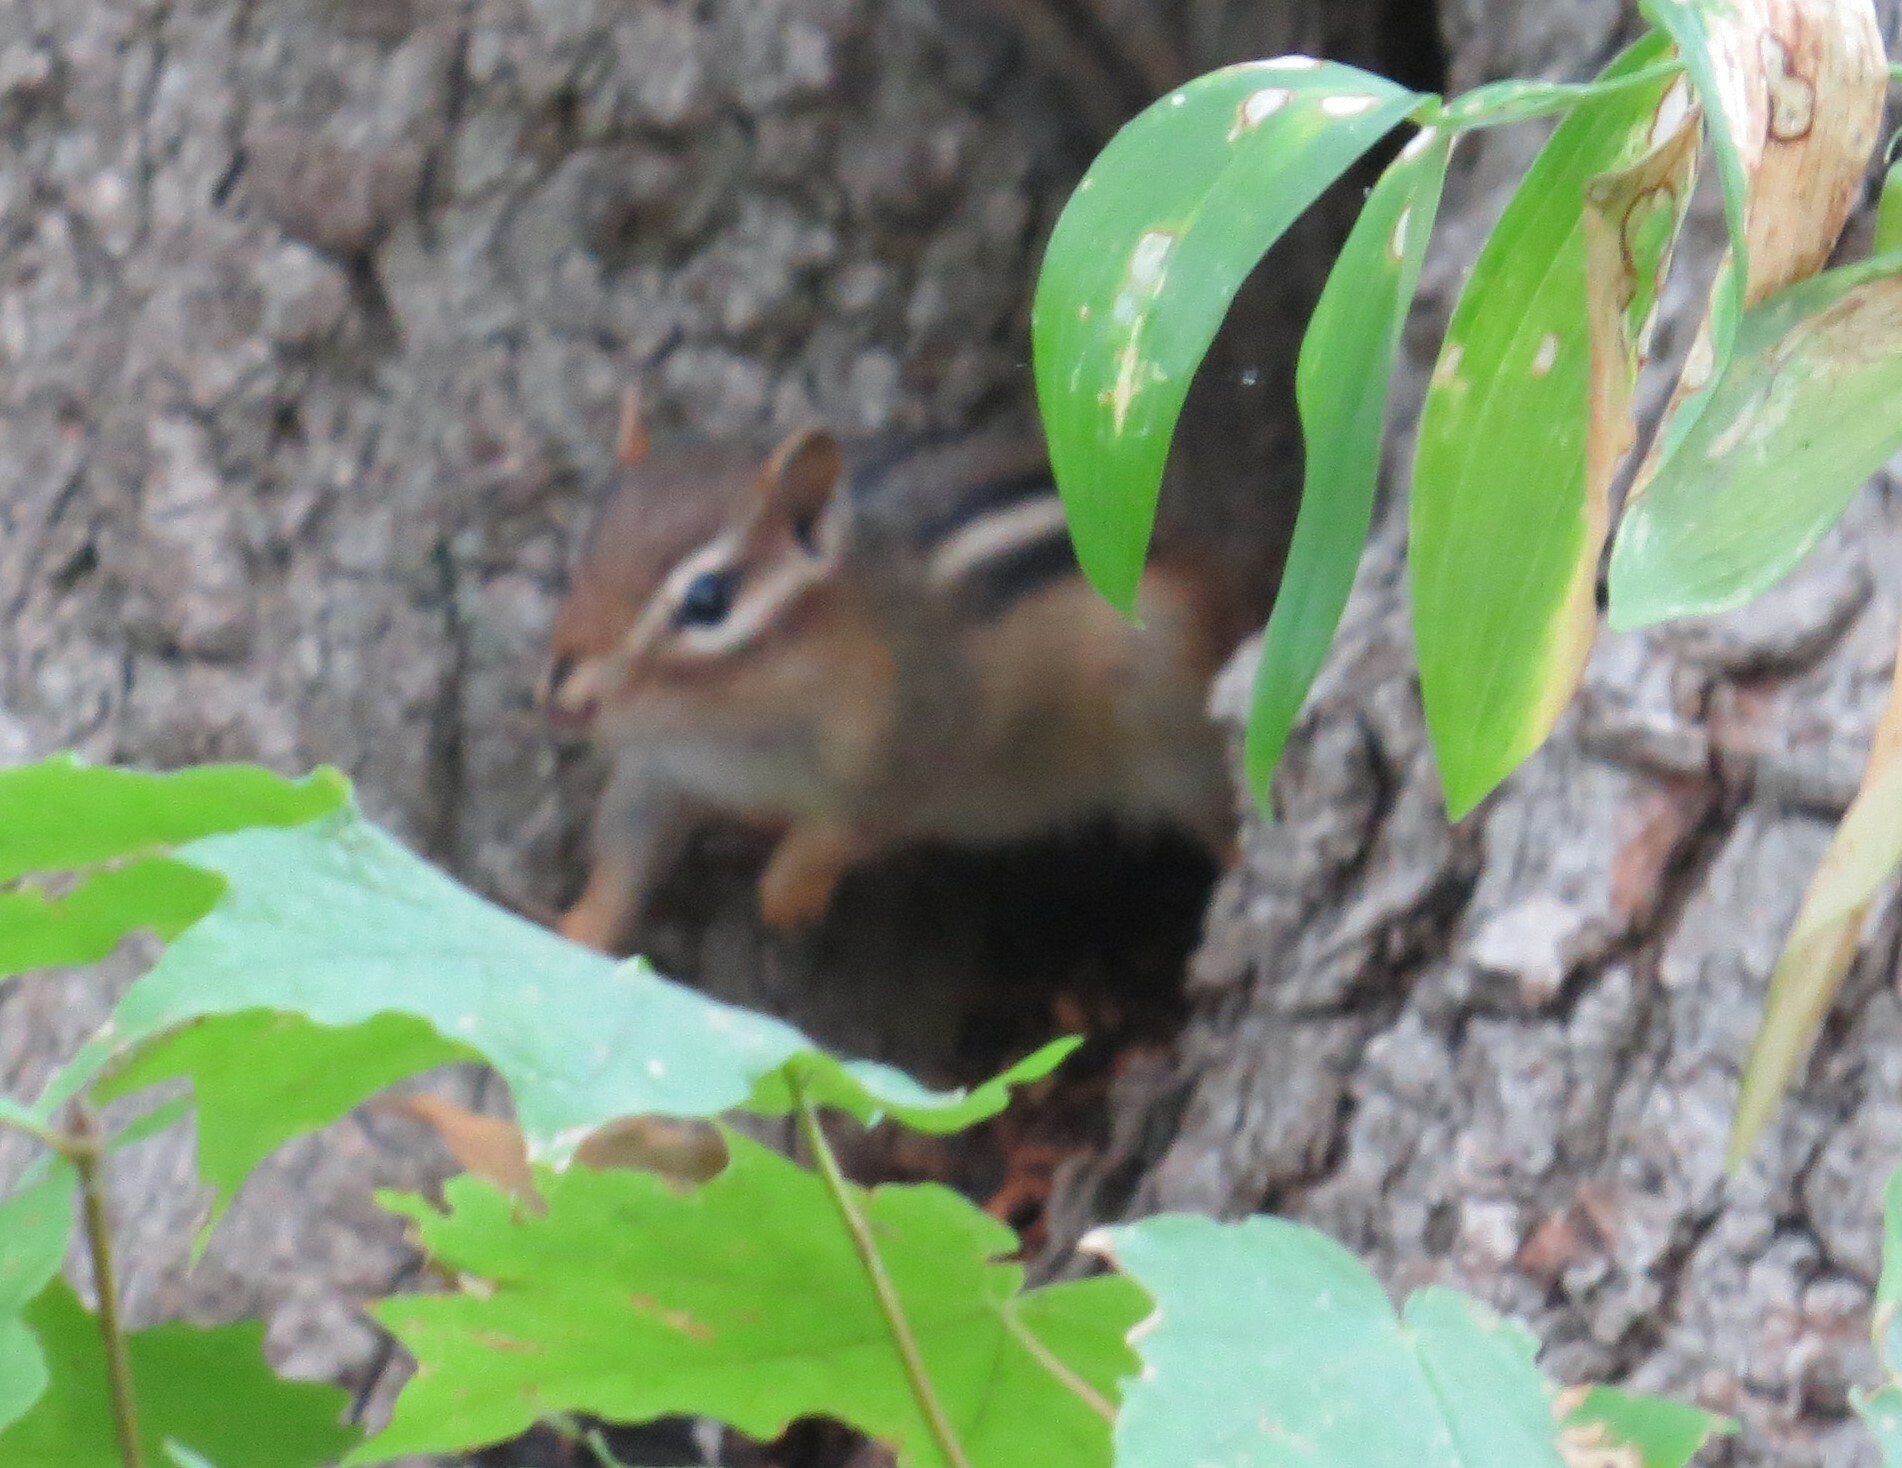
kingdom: Animalia
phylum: Chordata
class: Mammalia
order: Rodentia
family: Sciuridae
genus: Tamias
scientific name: Tamias striatus
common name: Eastern chipmunk
